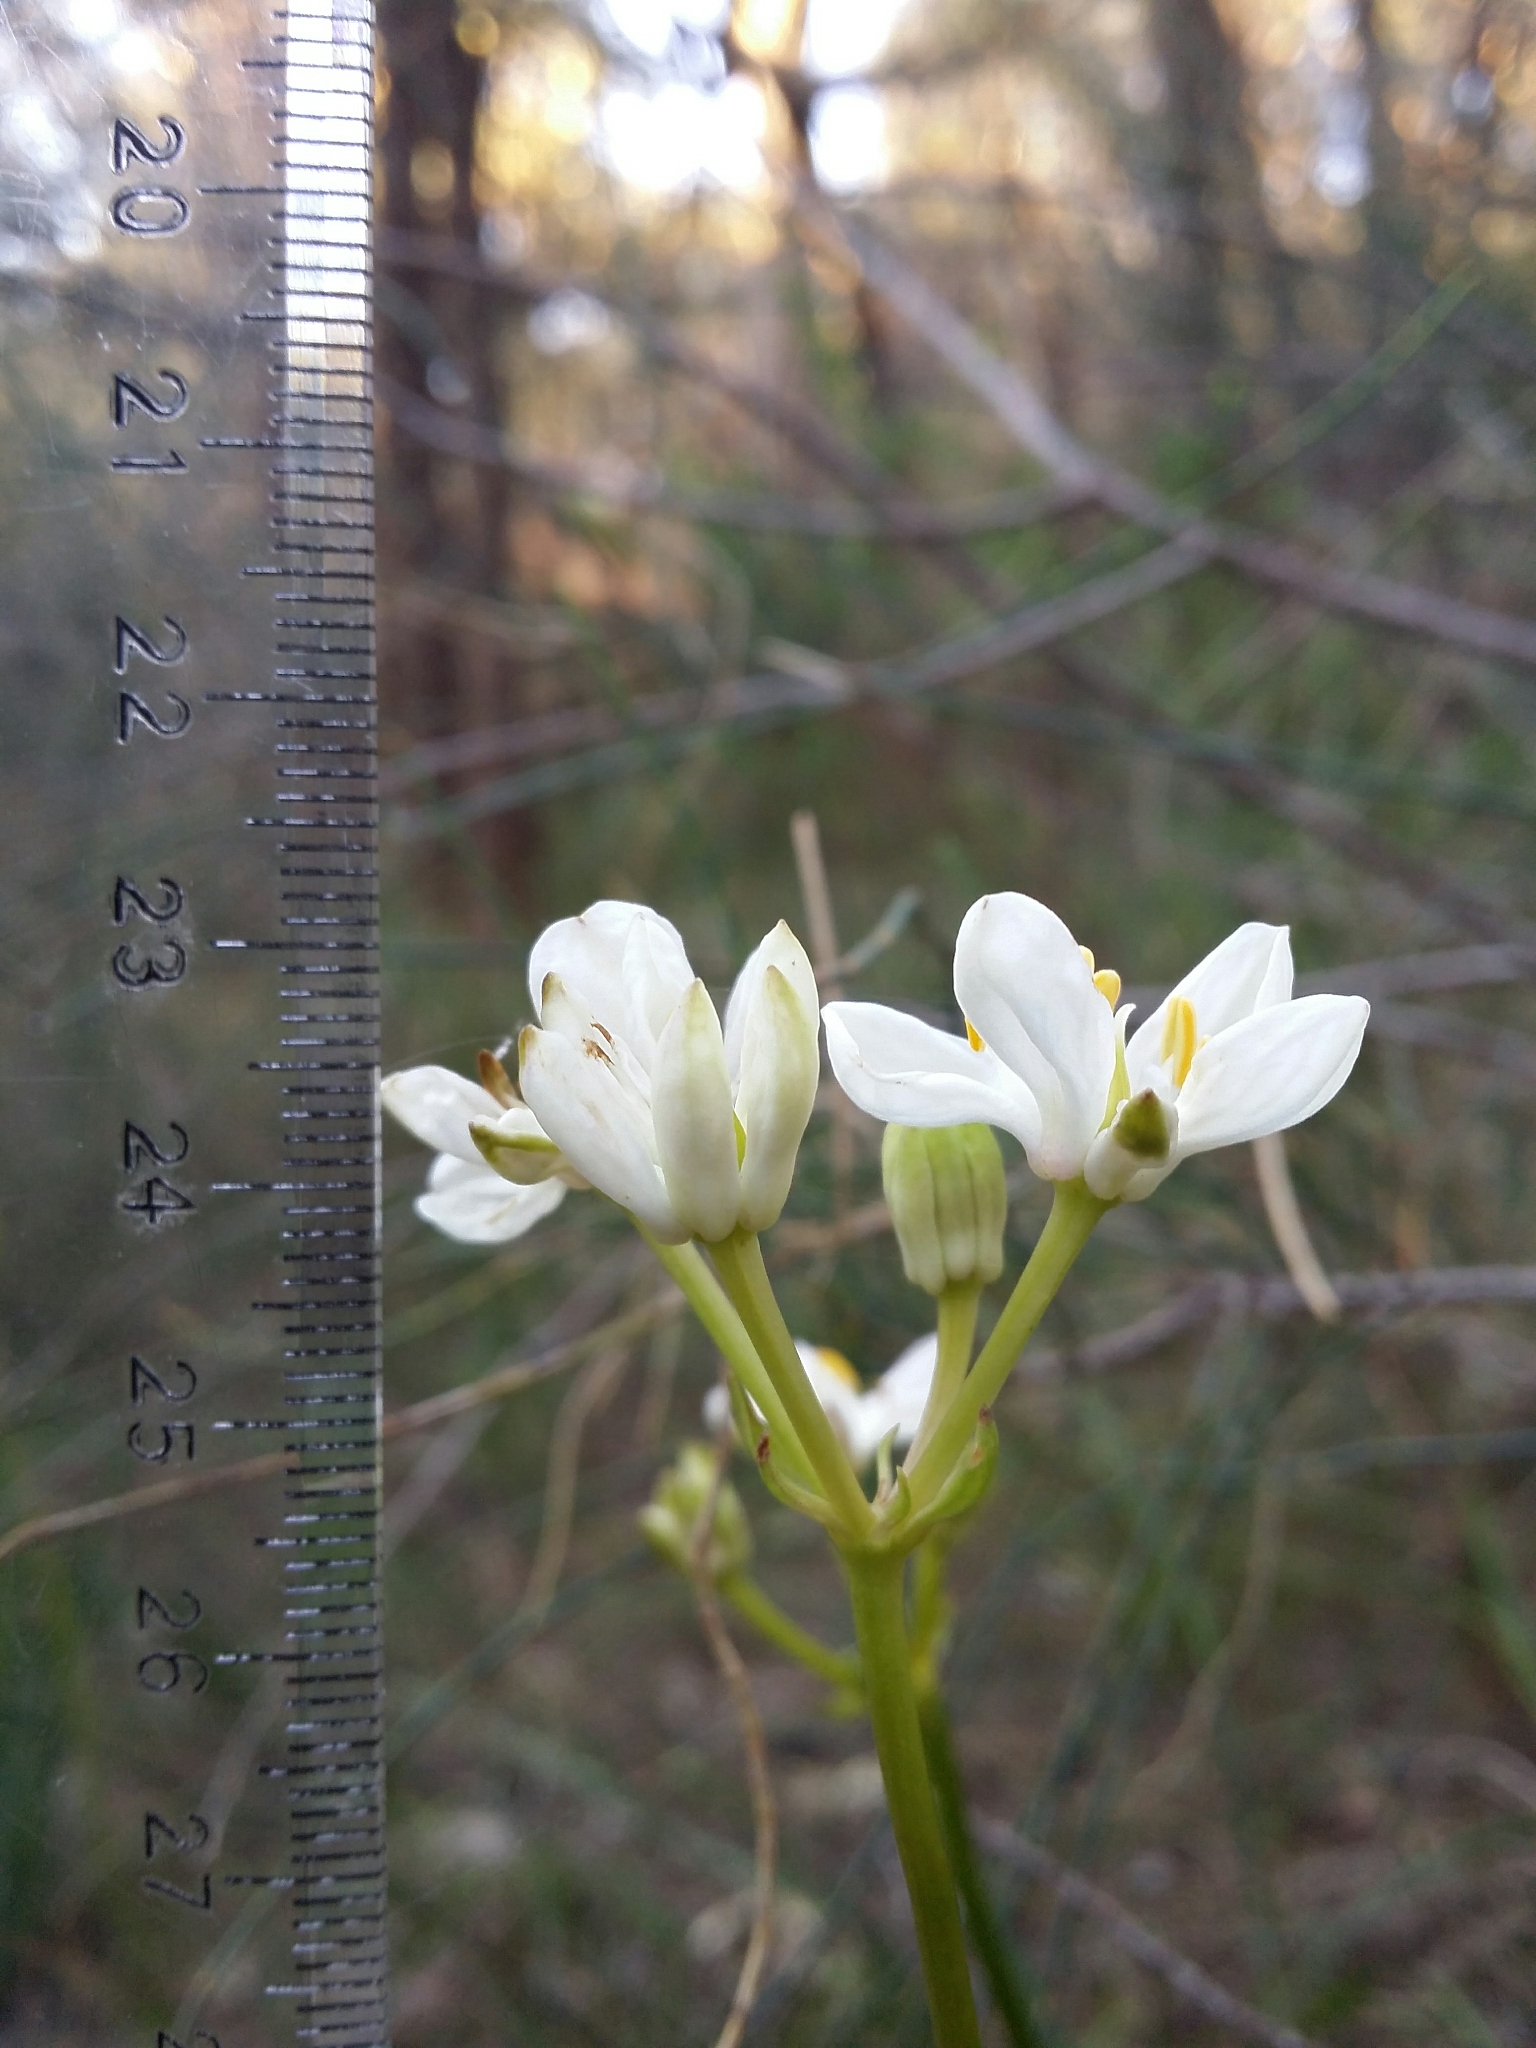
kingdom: Plantae
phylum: Tracheophyta
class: Liliopsida
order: Liliales
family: Colchicaceae
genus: Burchardia
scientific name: Burchardia congesta
